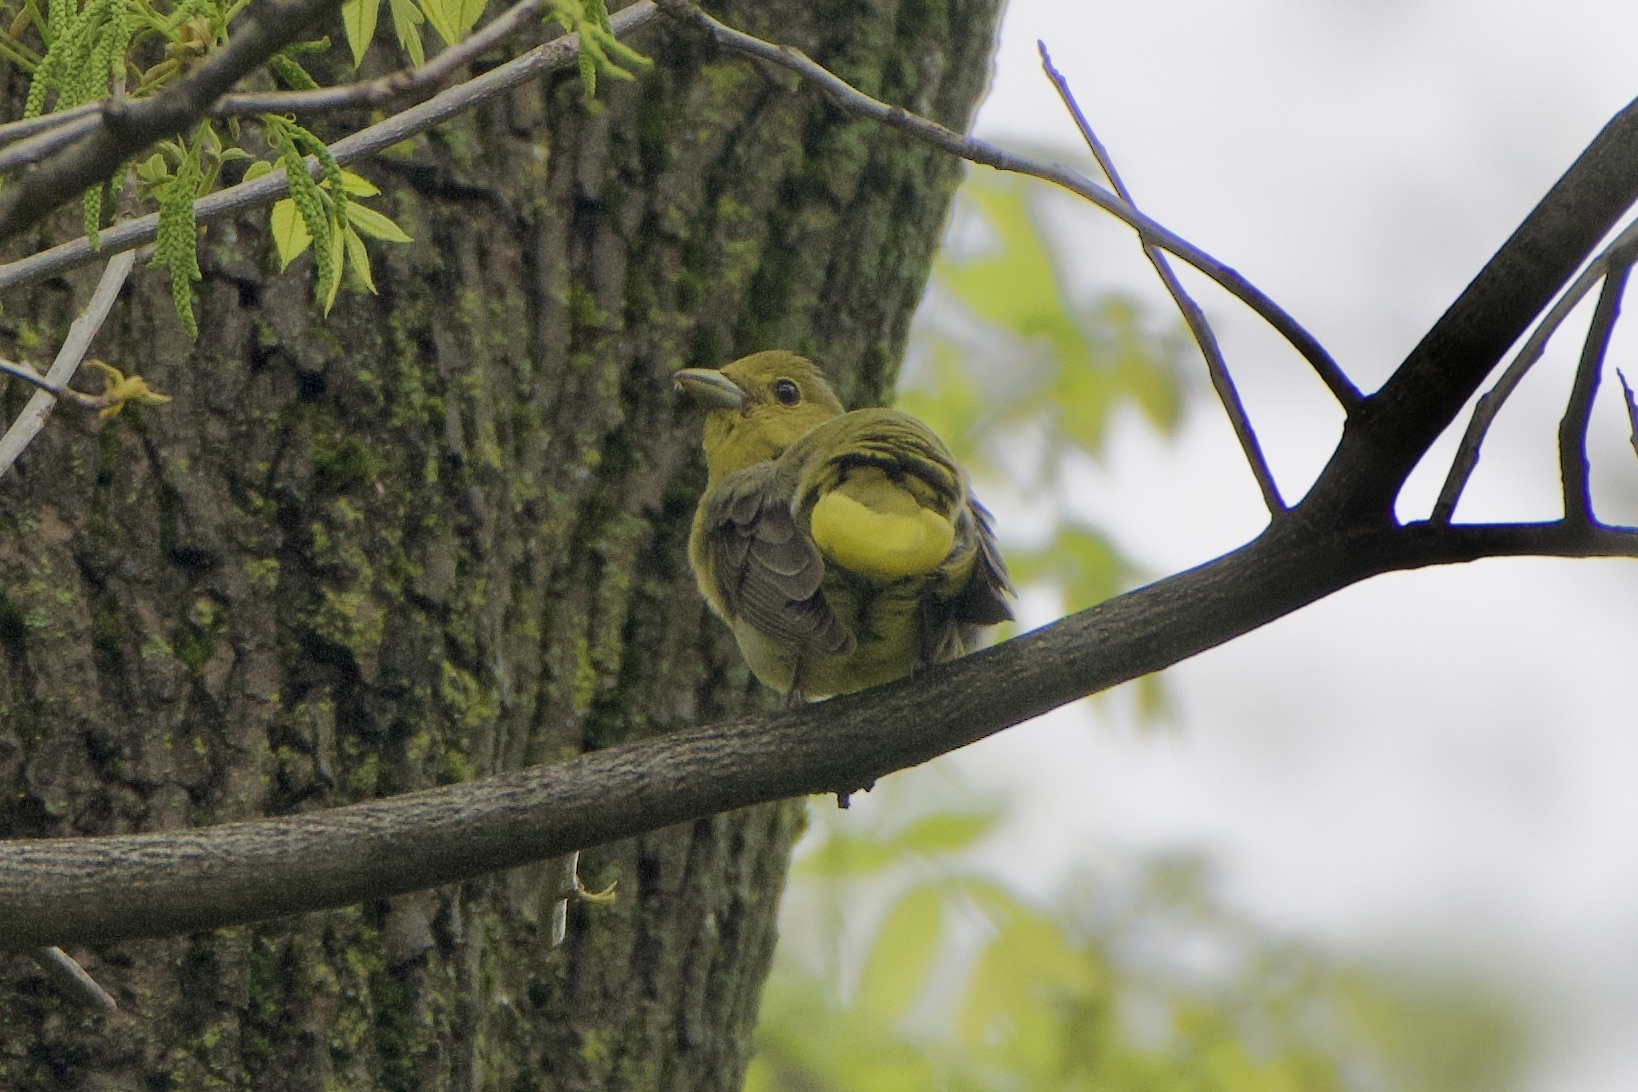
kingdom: Animalia
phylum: Chordata
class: Aves
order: Passeriformes
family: Cardinalidae
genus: Piranga
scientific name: Piranga olivacea
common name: Scarlet tanager
